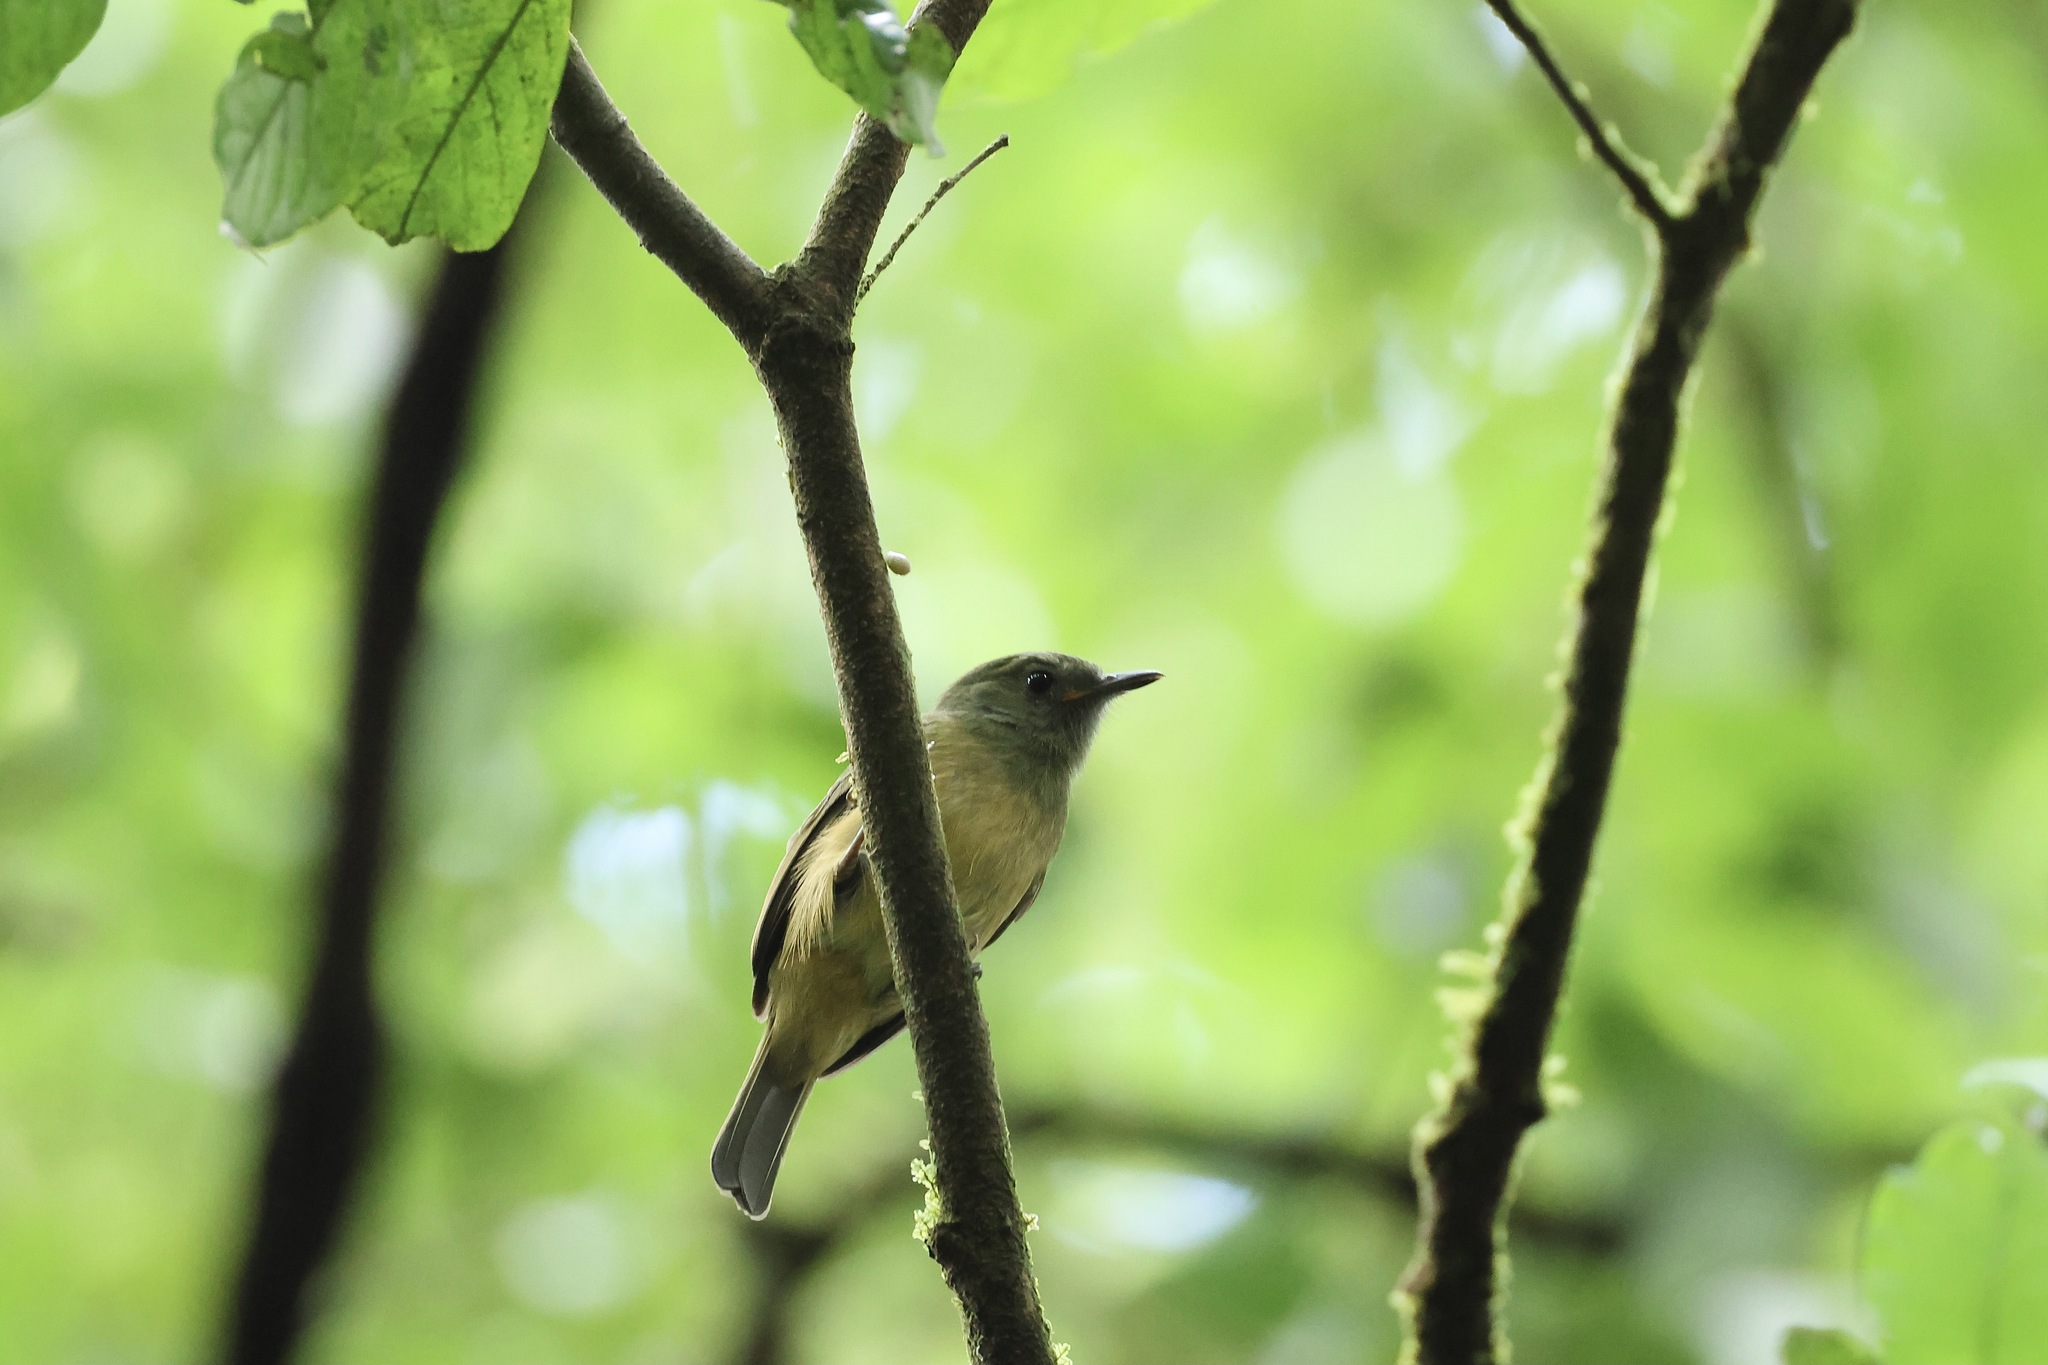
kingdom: Animalia
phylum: Chordata
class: Aves
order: Passeriformes
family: Tyrannidae
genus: Mionectes
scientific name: Mionectes oleagineus
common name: Ochre-bellied flycatcher
